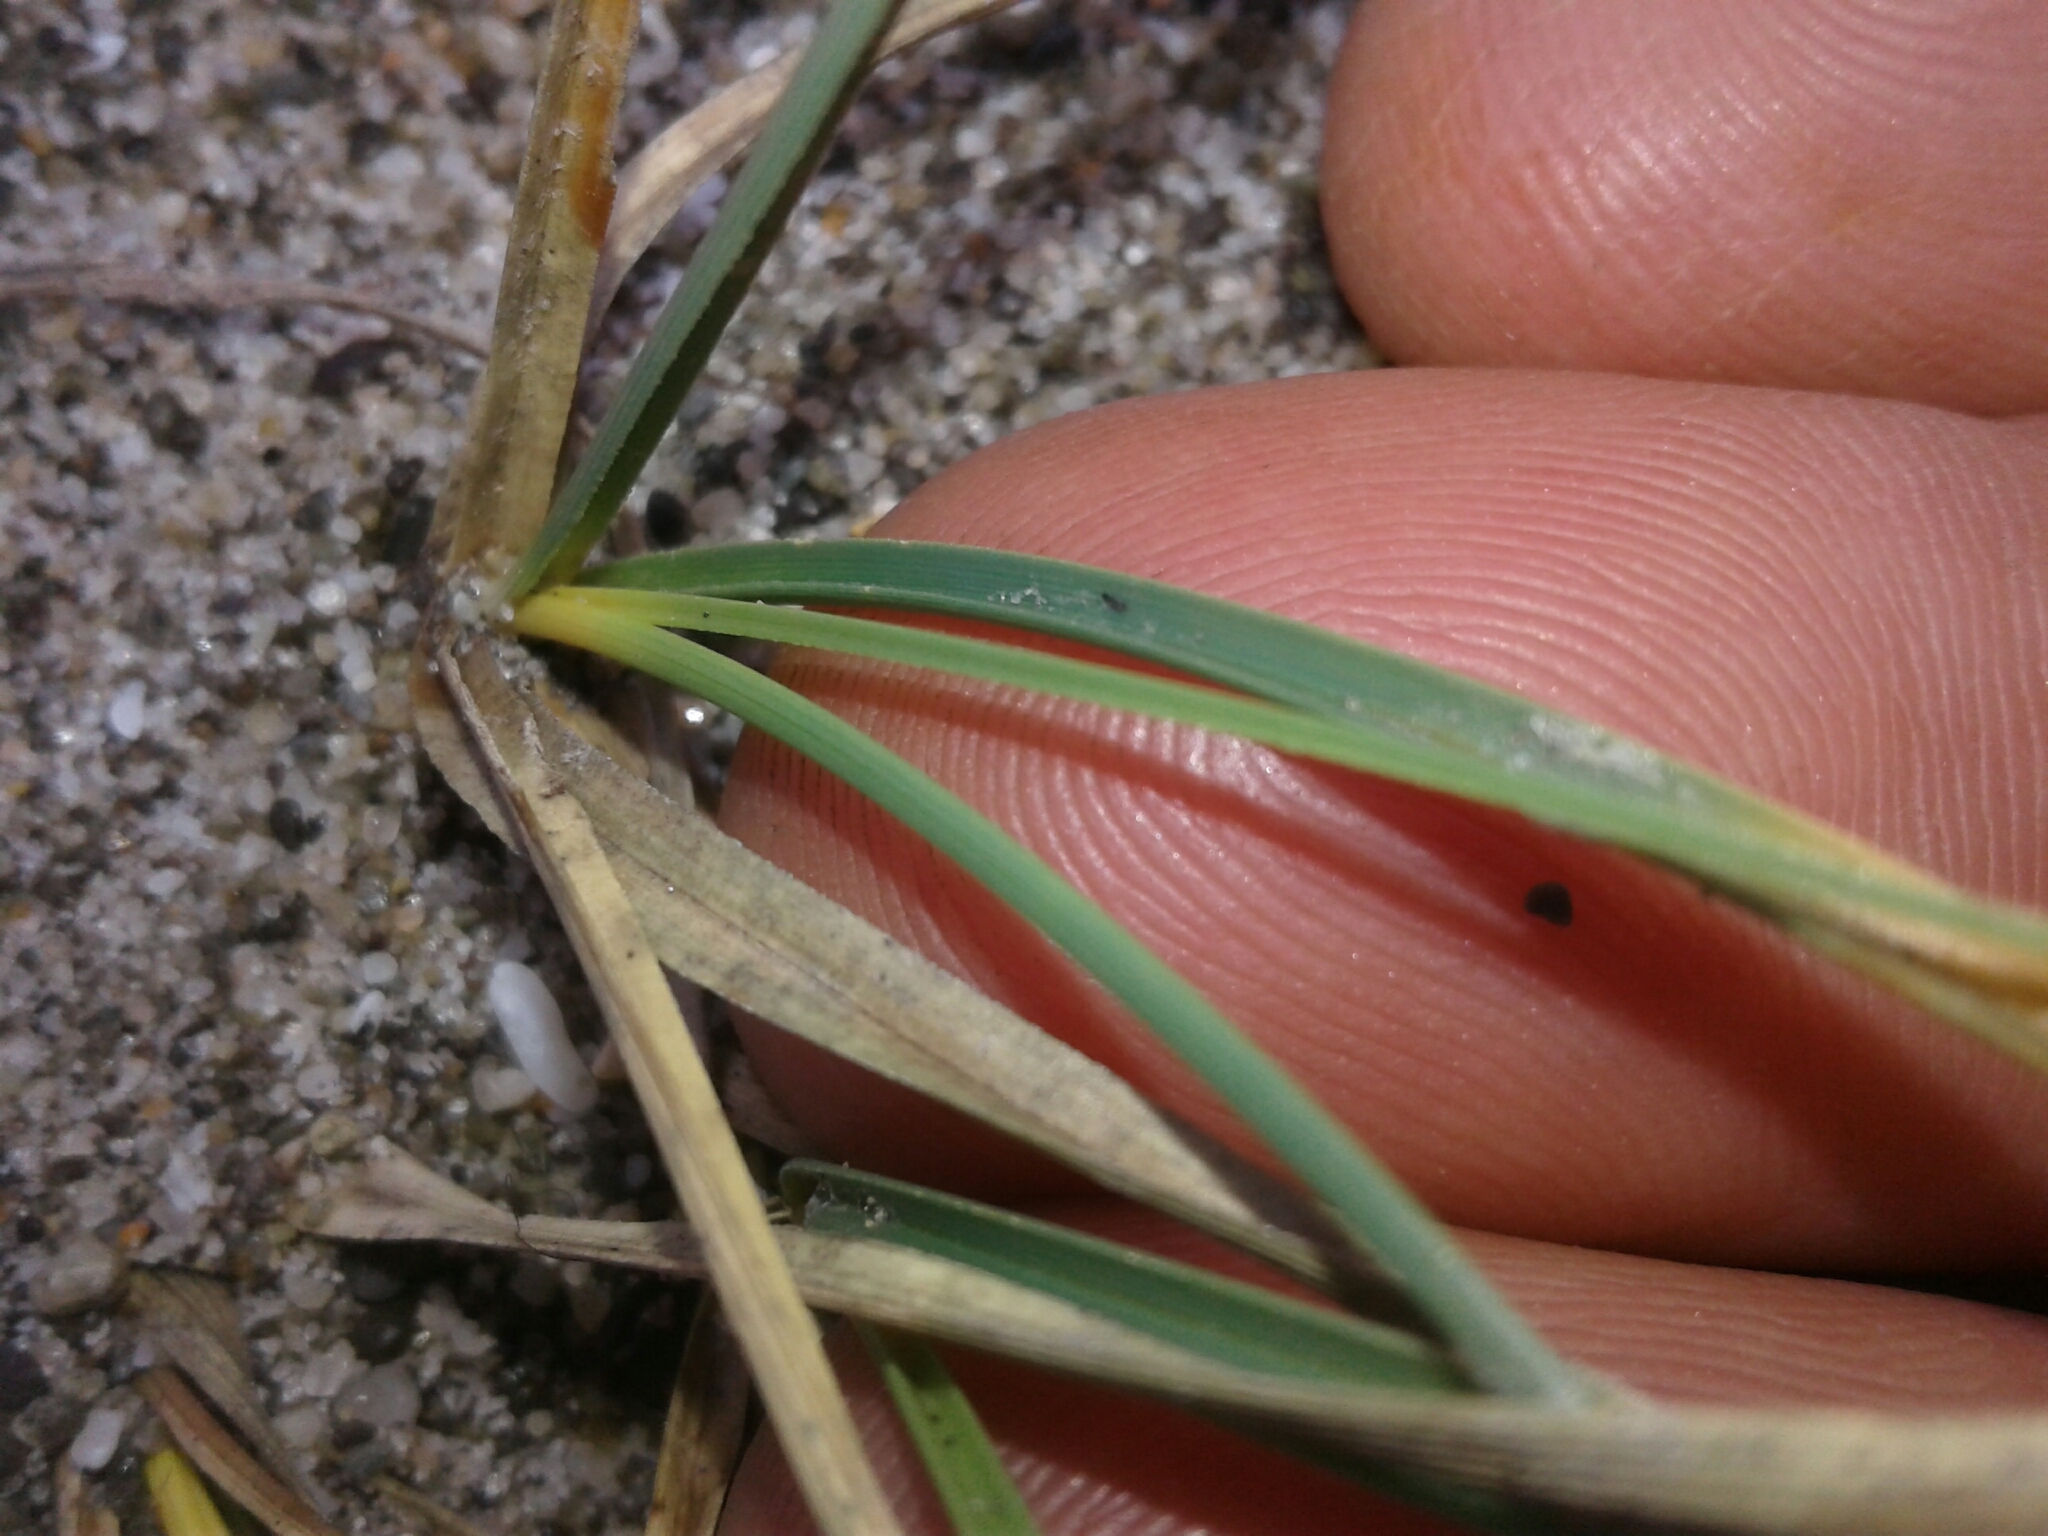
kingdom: Plantae
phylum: Tracheophyta
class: Liliopsida
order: Poales
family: Cyperaceae
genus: Carex
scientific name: Carex pumila
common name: Dwarf sedge
